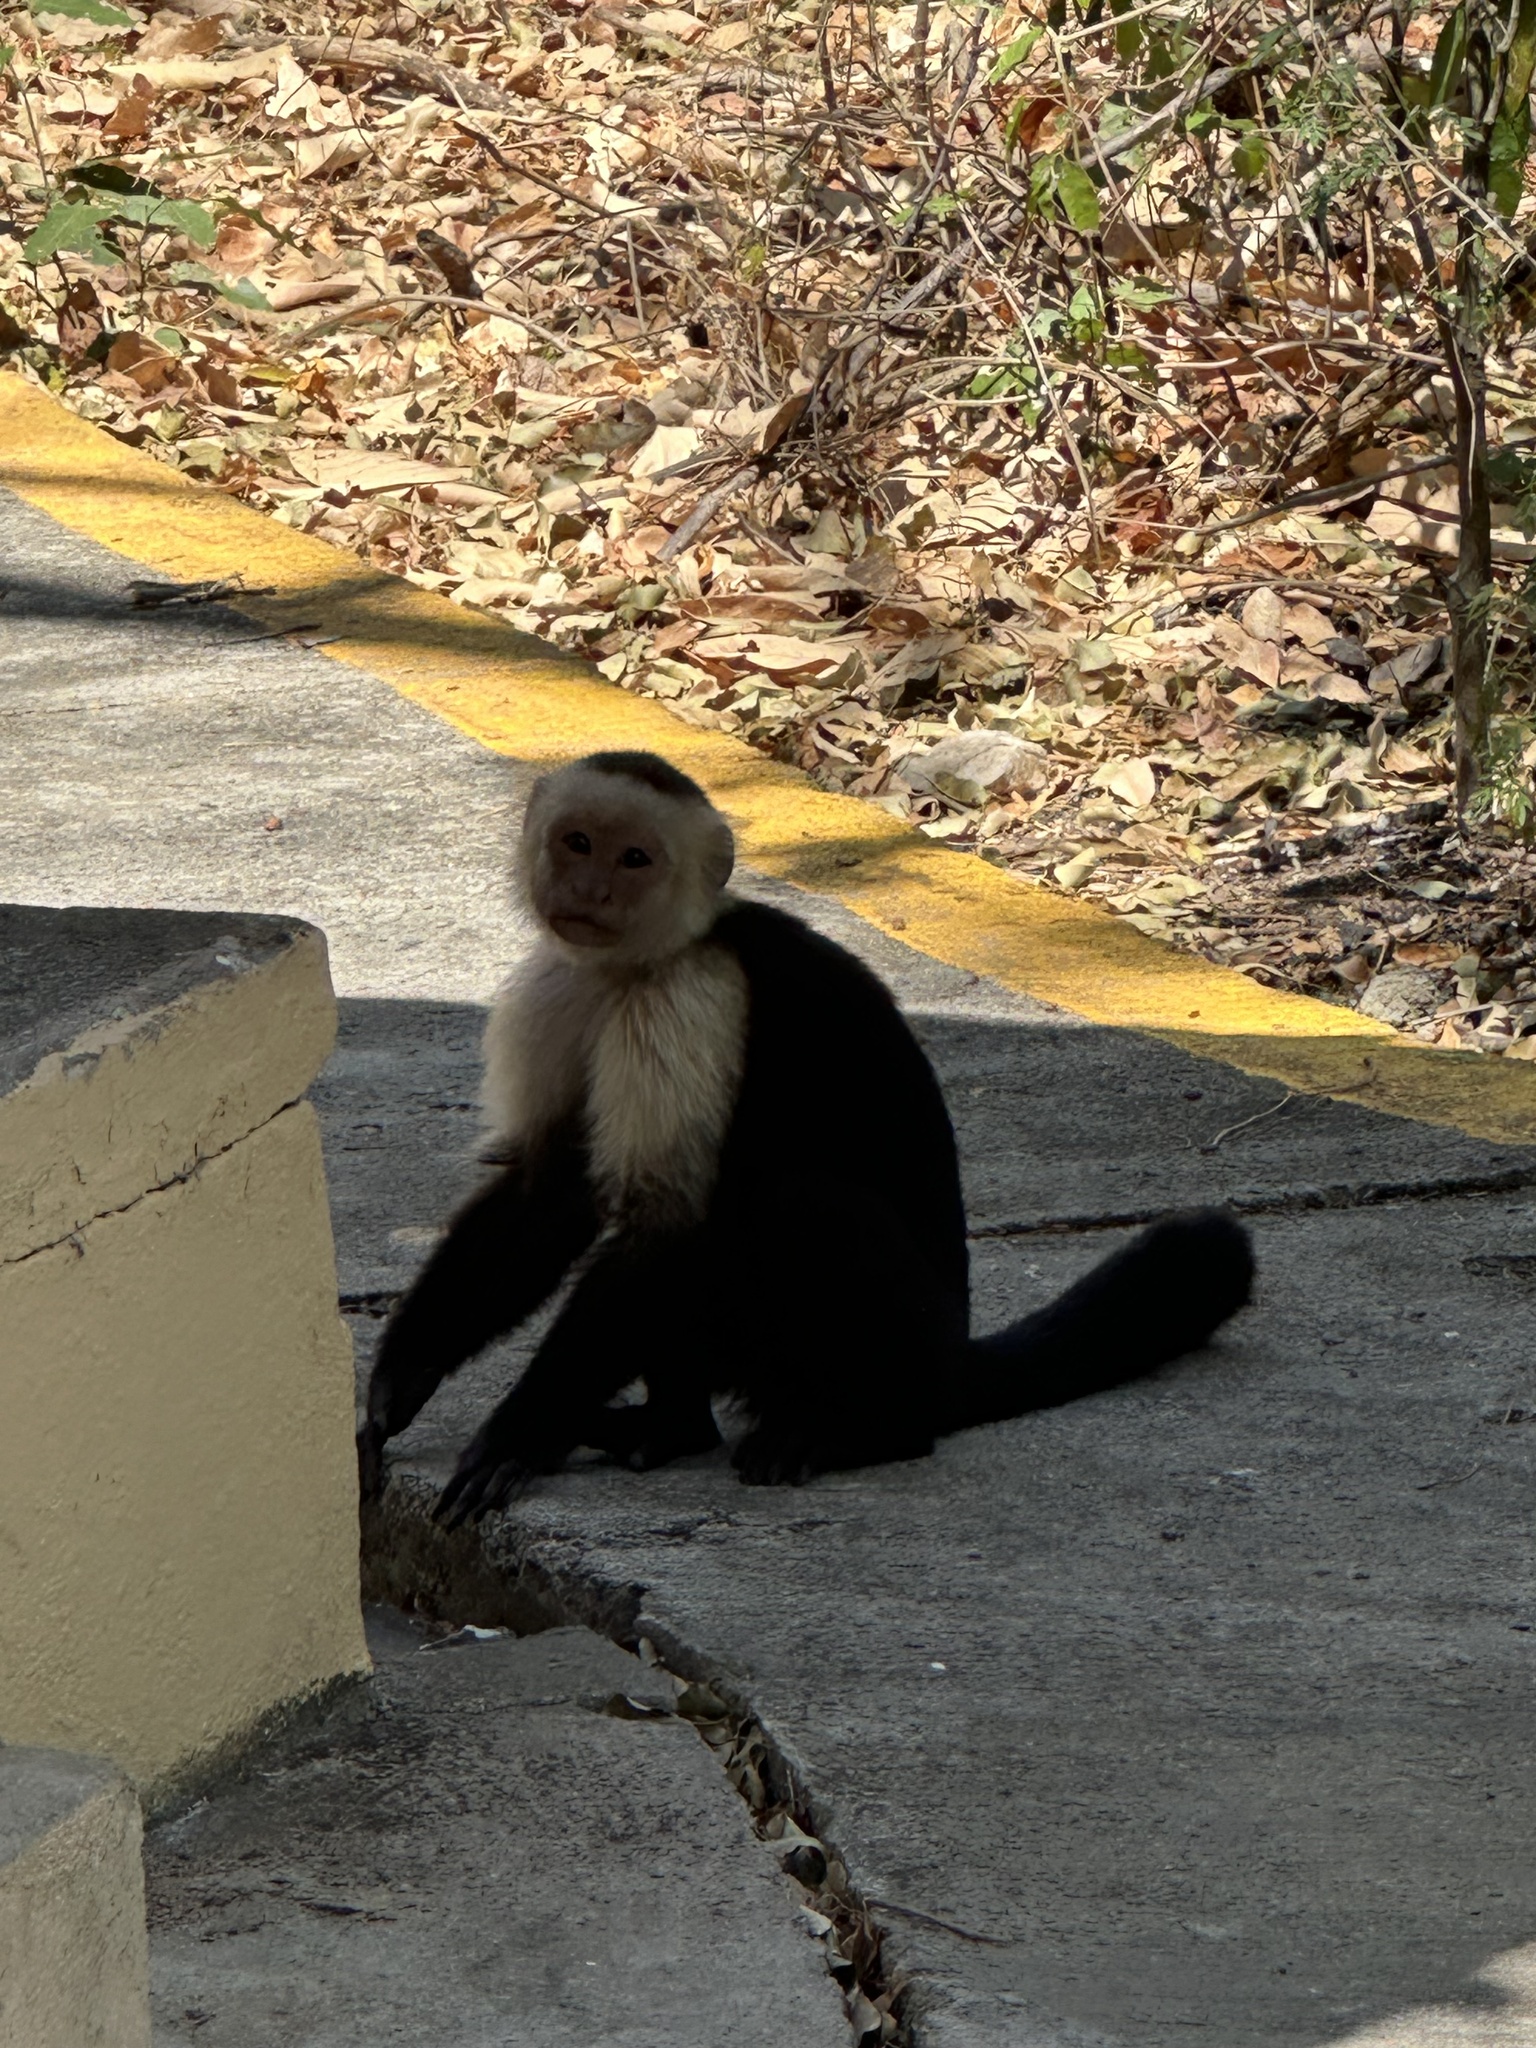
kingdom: Animalia
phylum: Chordata
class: Mammalia
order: Primates
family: Cebidae
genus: Cebus
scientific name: Cebus imitator
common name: Panamanian white-faced capuchin
